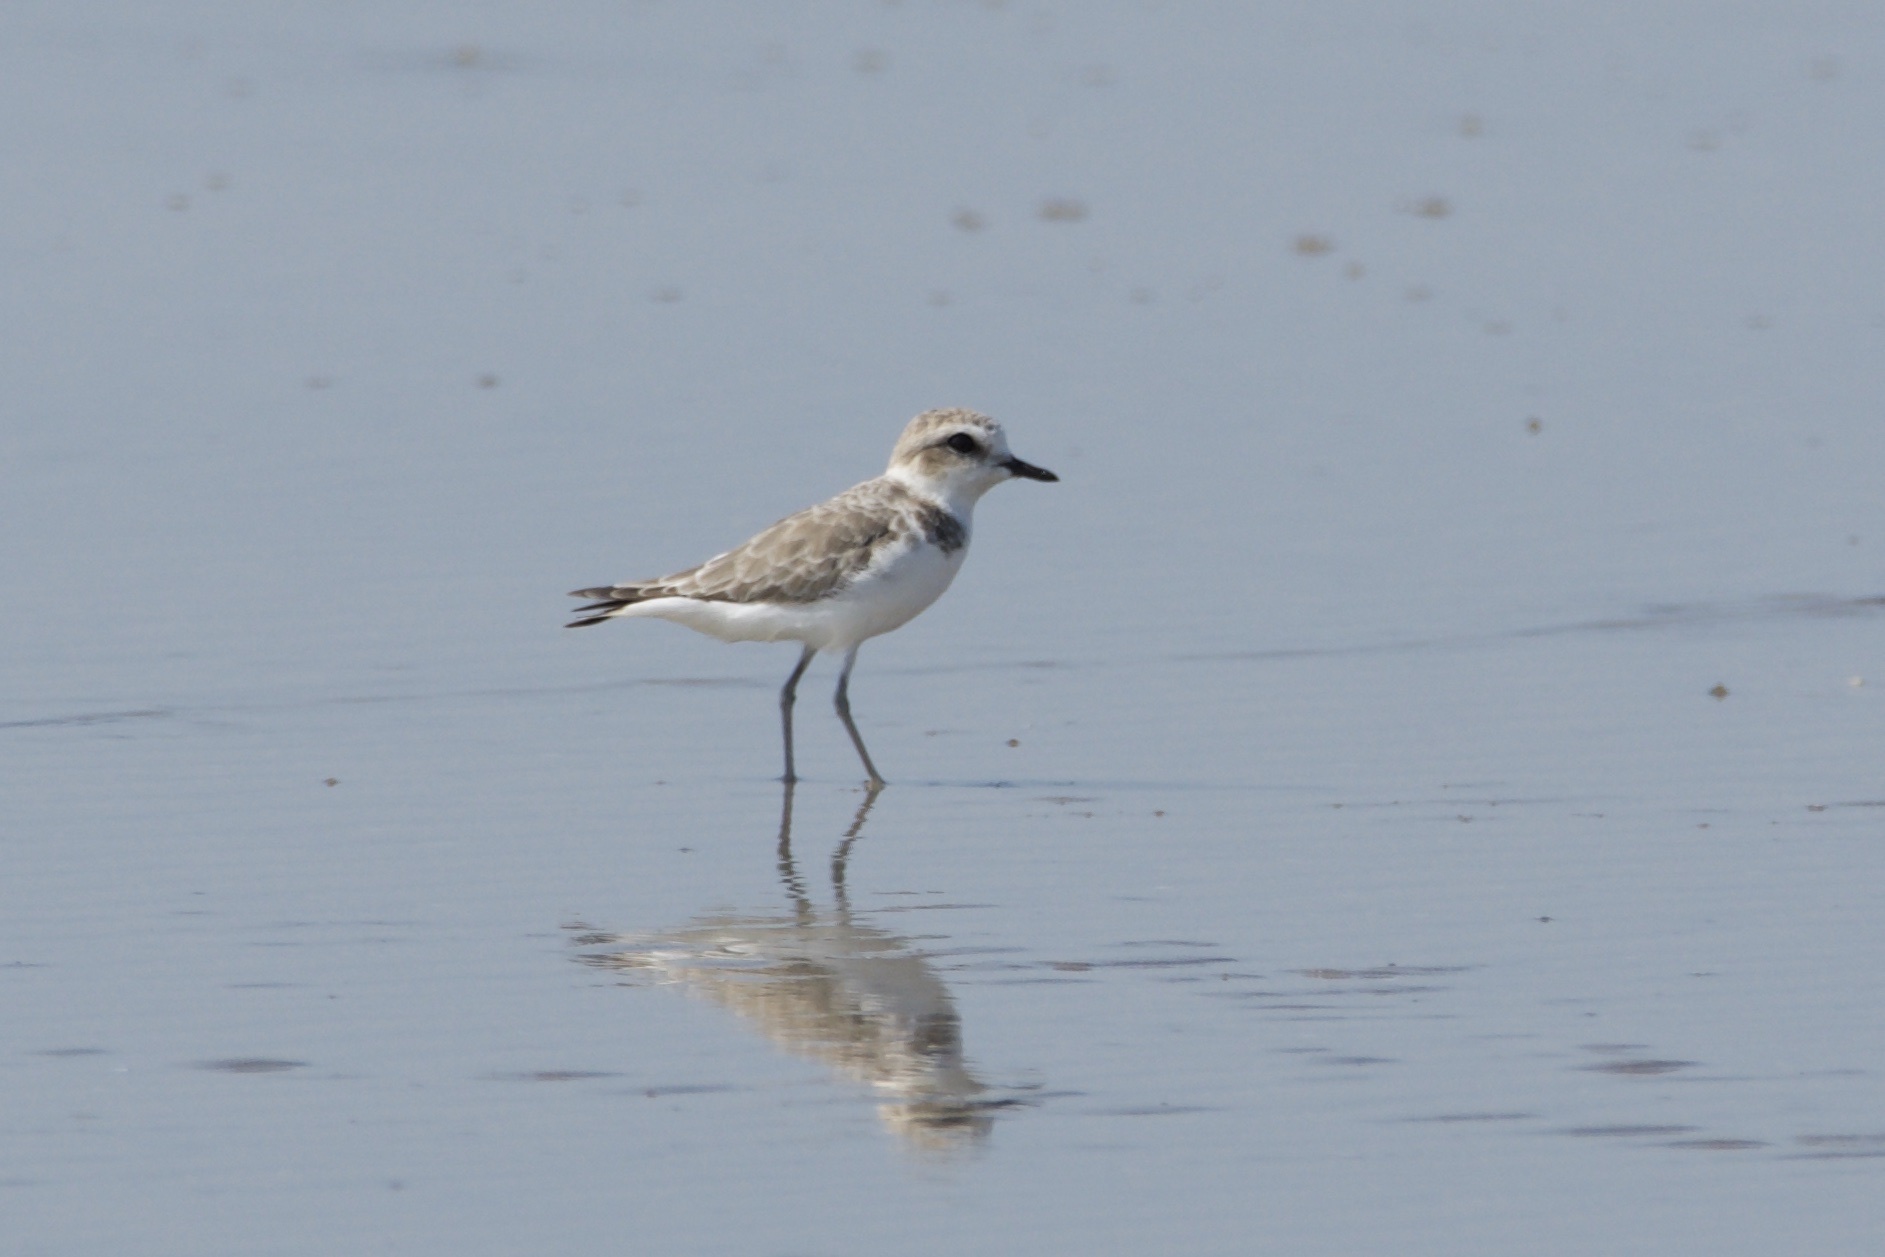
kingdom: Animalia
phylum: Chordata
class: Aves
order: Charadriiformes
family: Charadriidae
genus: Anarhynchus
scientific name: Anarhynchus
